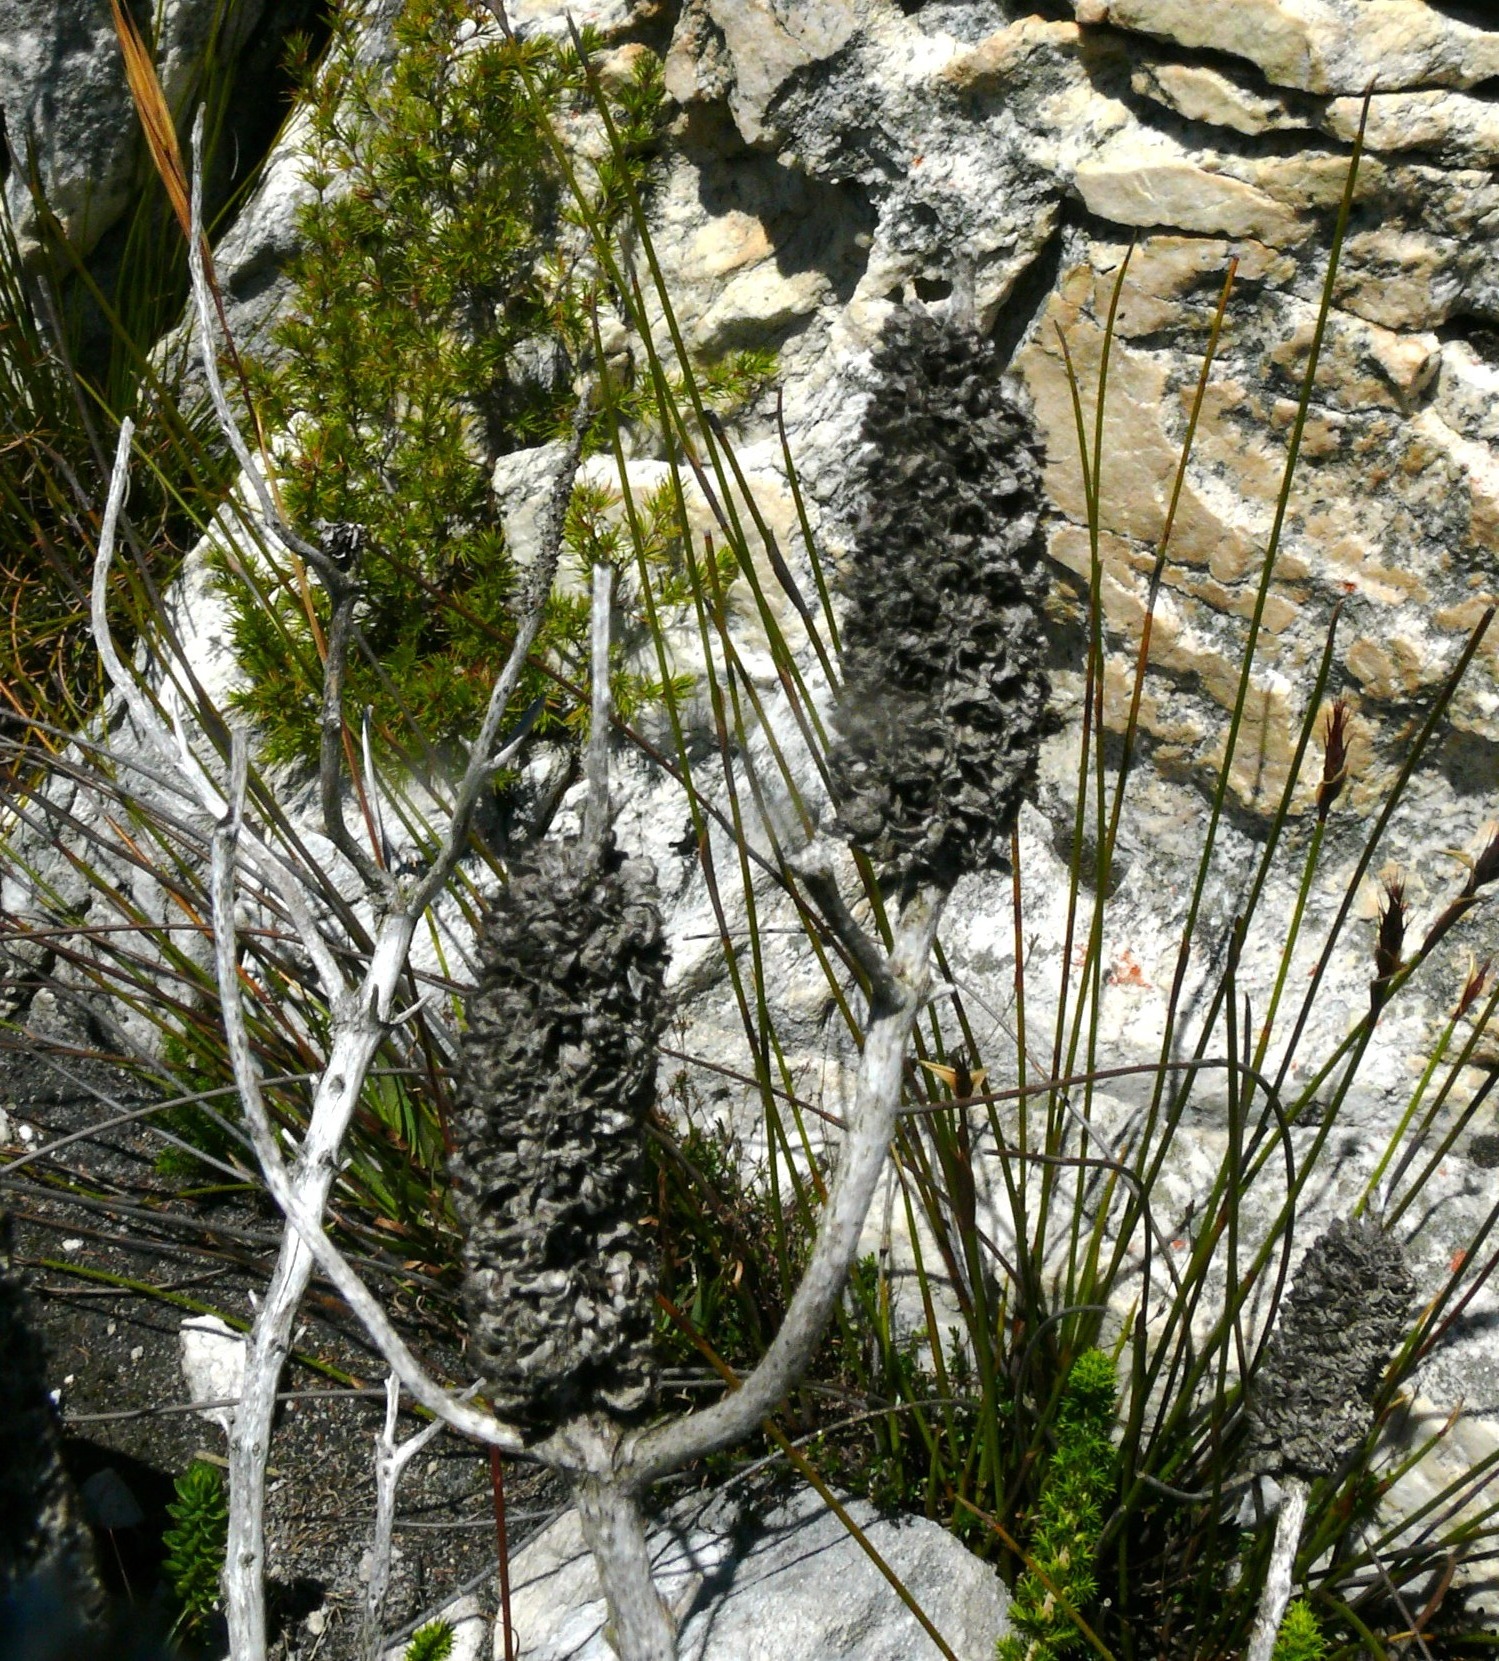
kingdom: Plantae
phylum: Tracheophyta
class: Magnoliopsida
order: Ericales
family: Ericaceae
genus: Erica
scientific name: Erica sessiliflora
